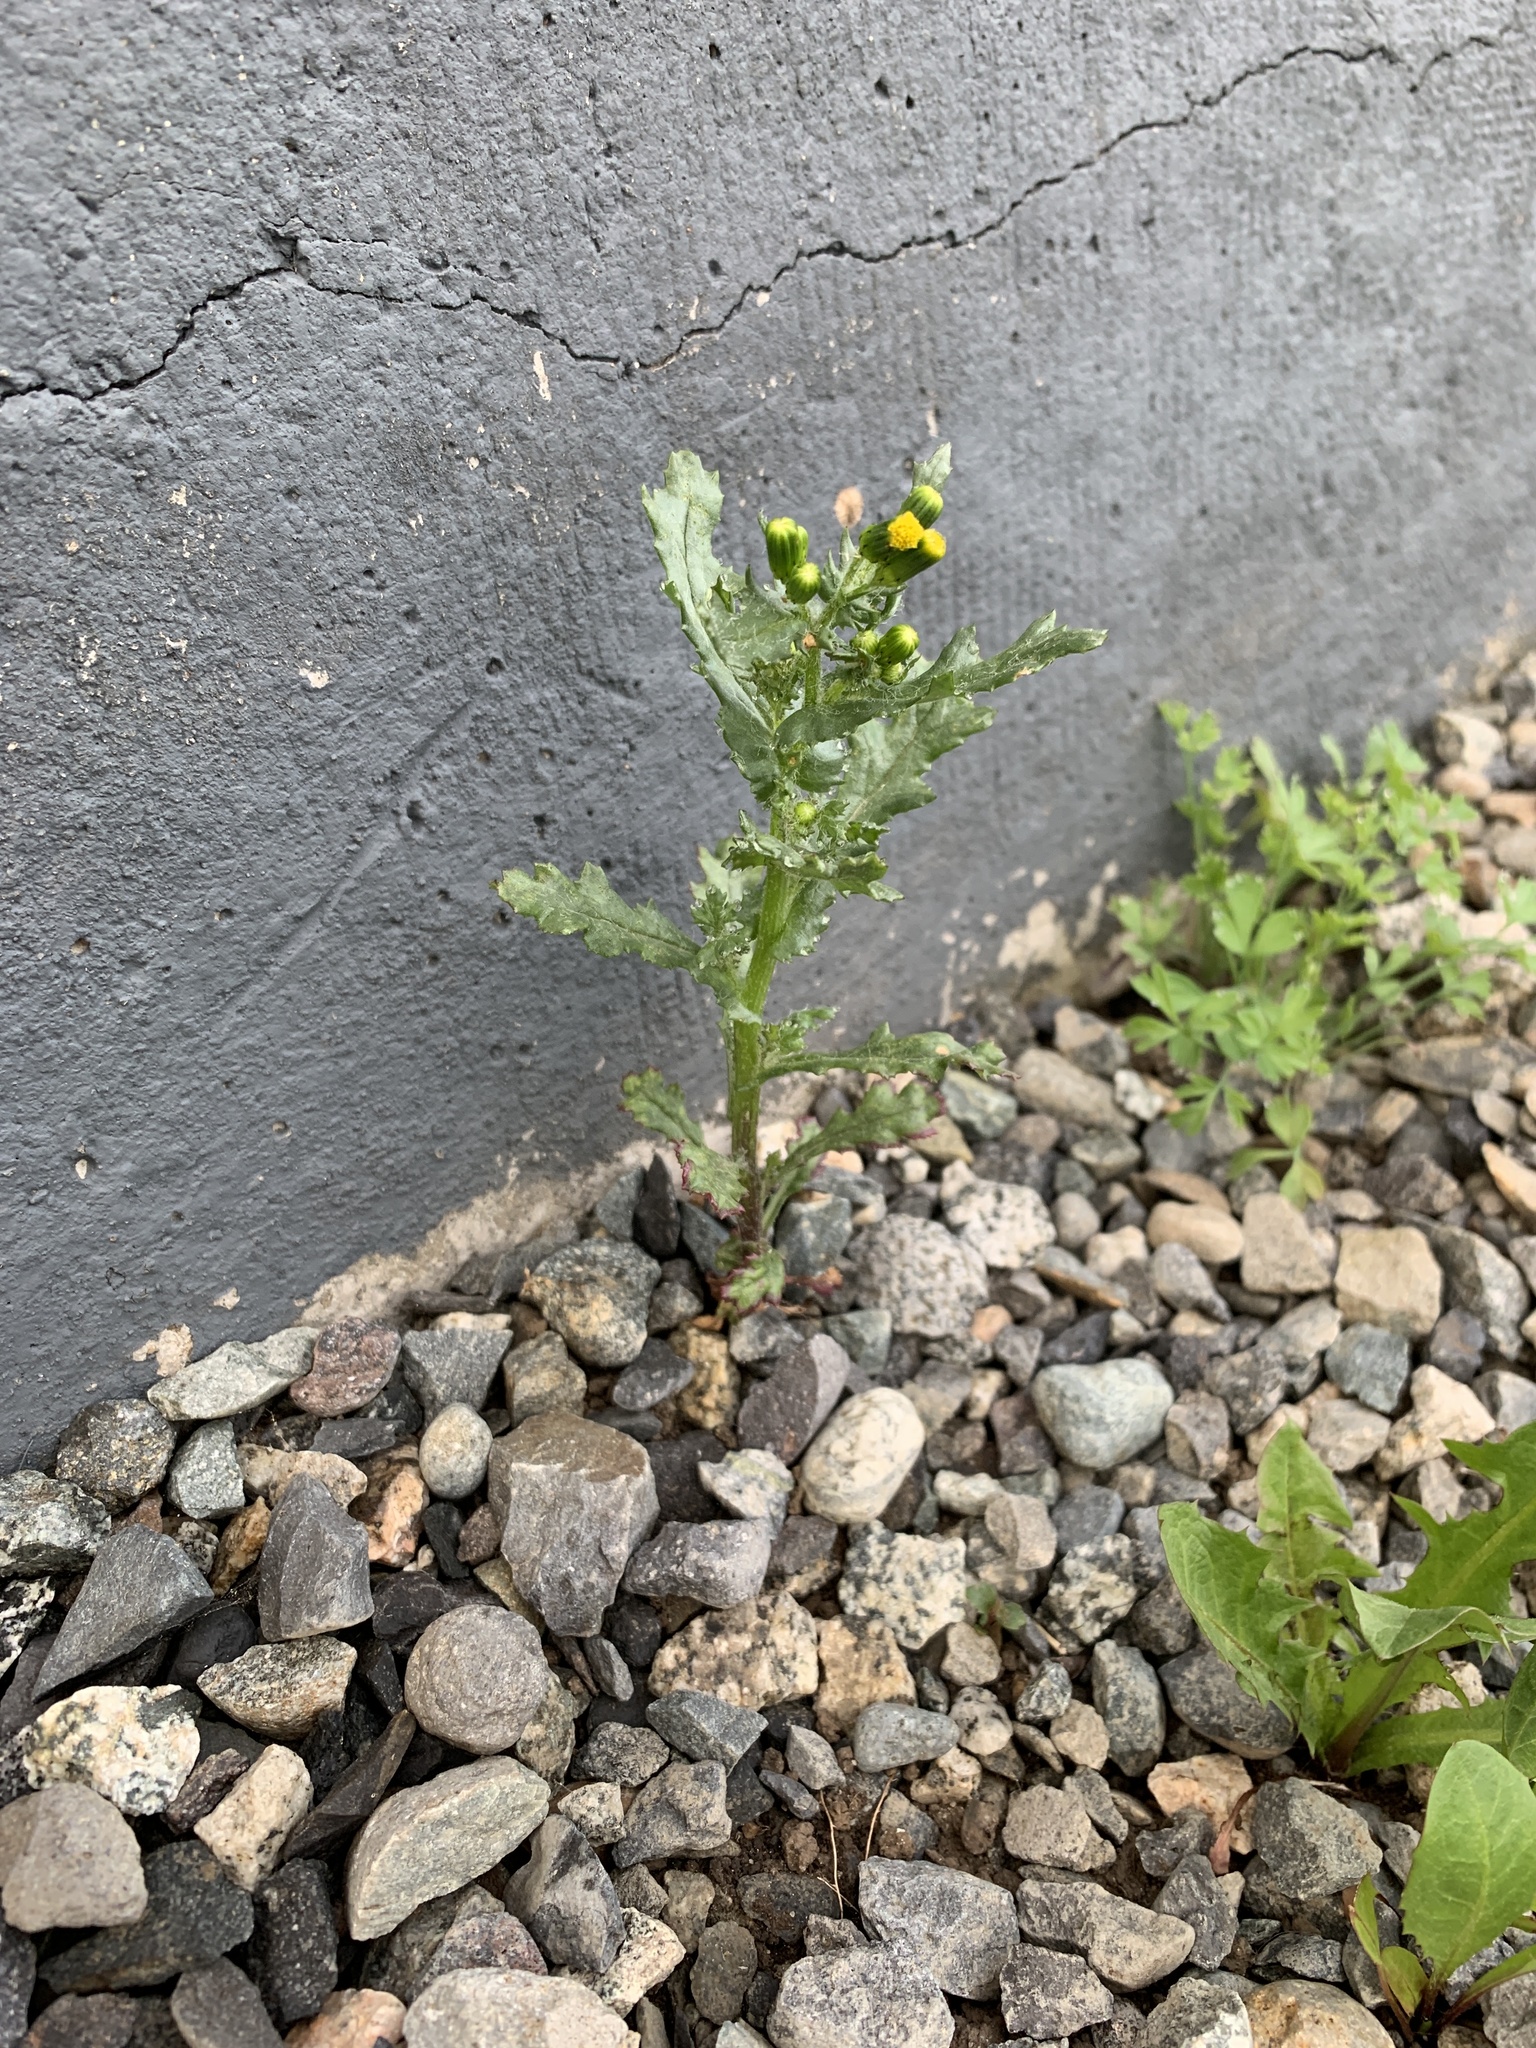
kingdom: Plantae
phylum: Tracheophyta
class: Magnoliopsida
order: Asterales
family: Asteraceae
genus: Senecio
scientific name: Senecio vulgaris
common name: Old-man-in-the-spring
